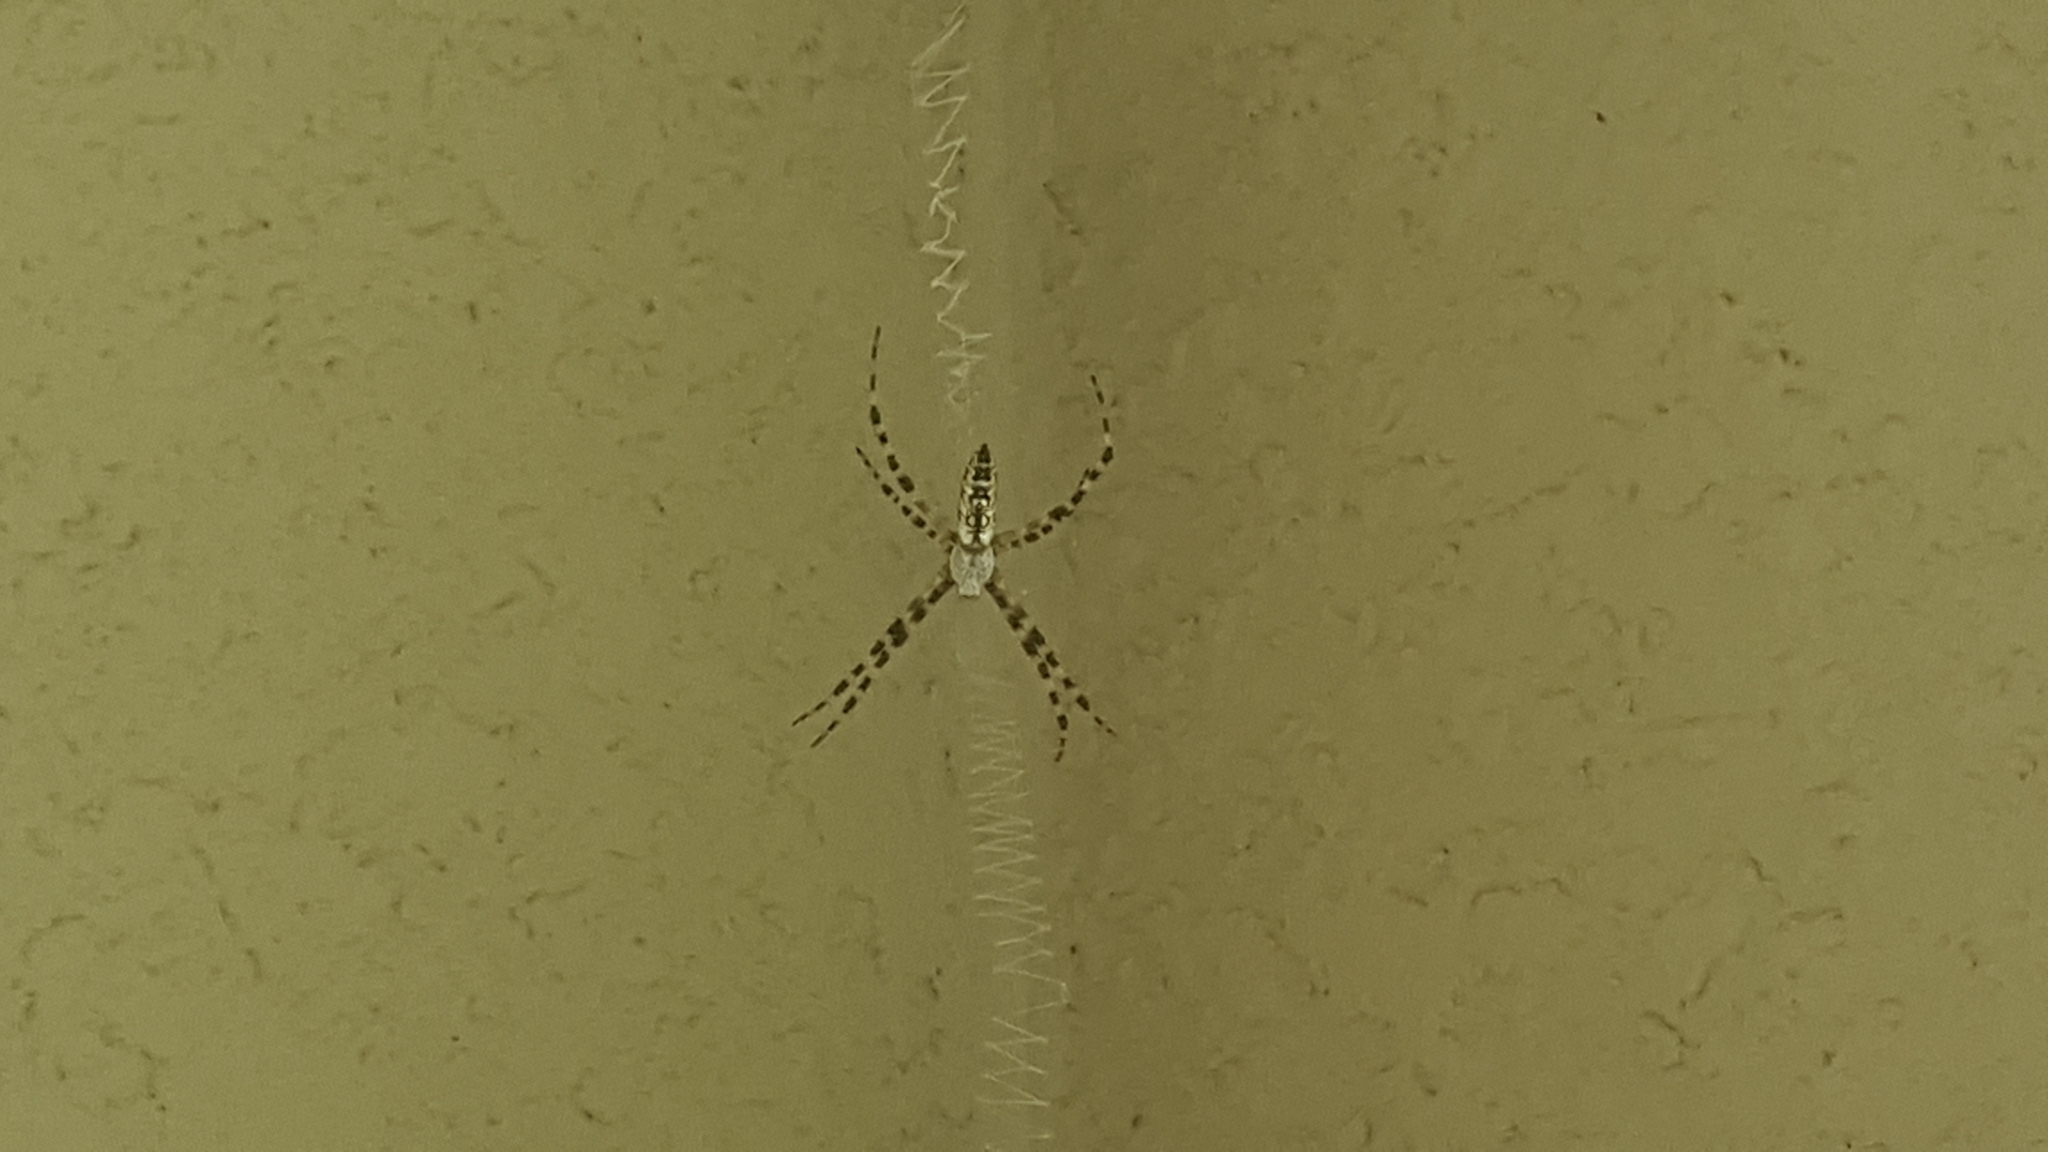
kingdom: Animalia
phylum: Arthropoda
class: Arachnida
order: Araneae
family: Araneidae
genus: Argiope
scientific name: Argiope aurantia
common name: Orb weavers
